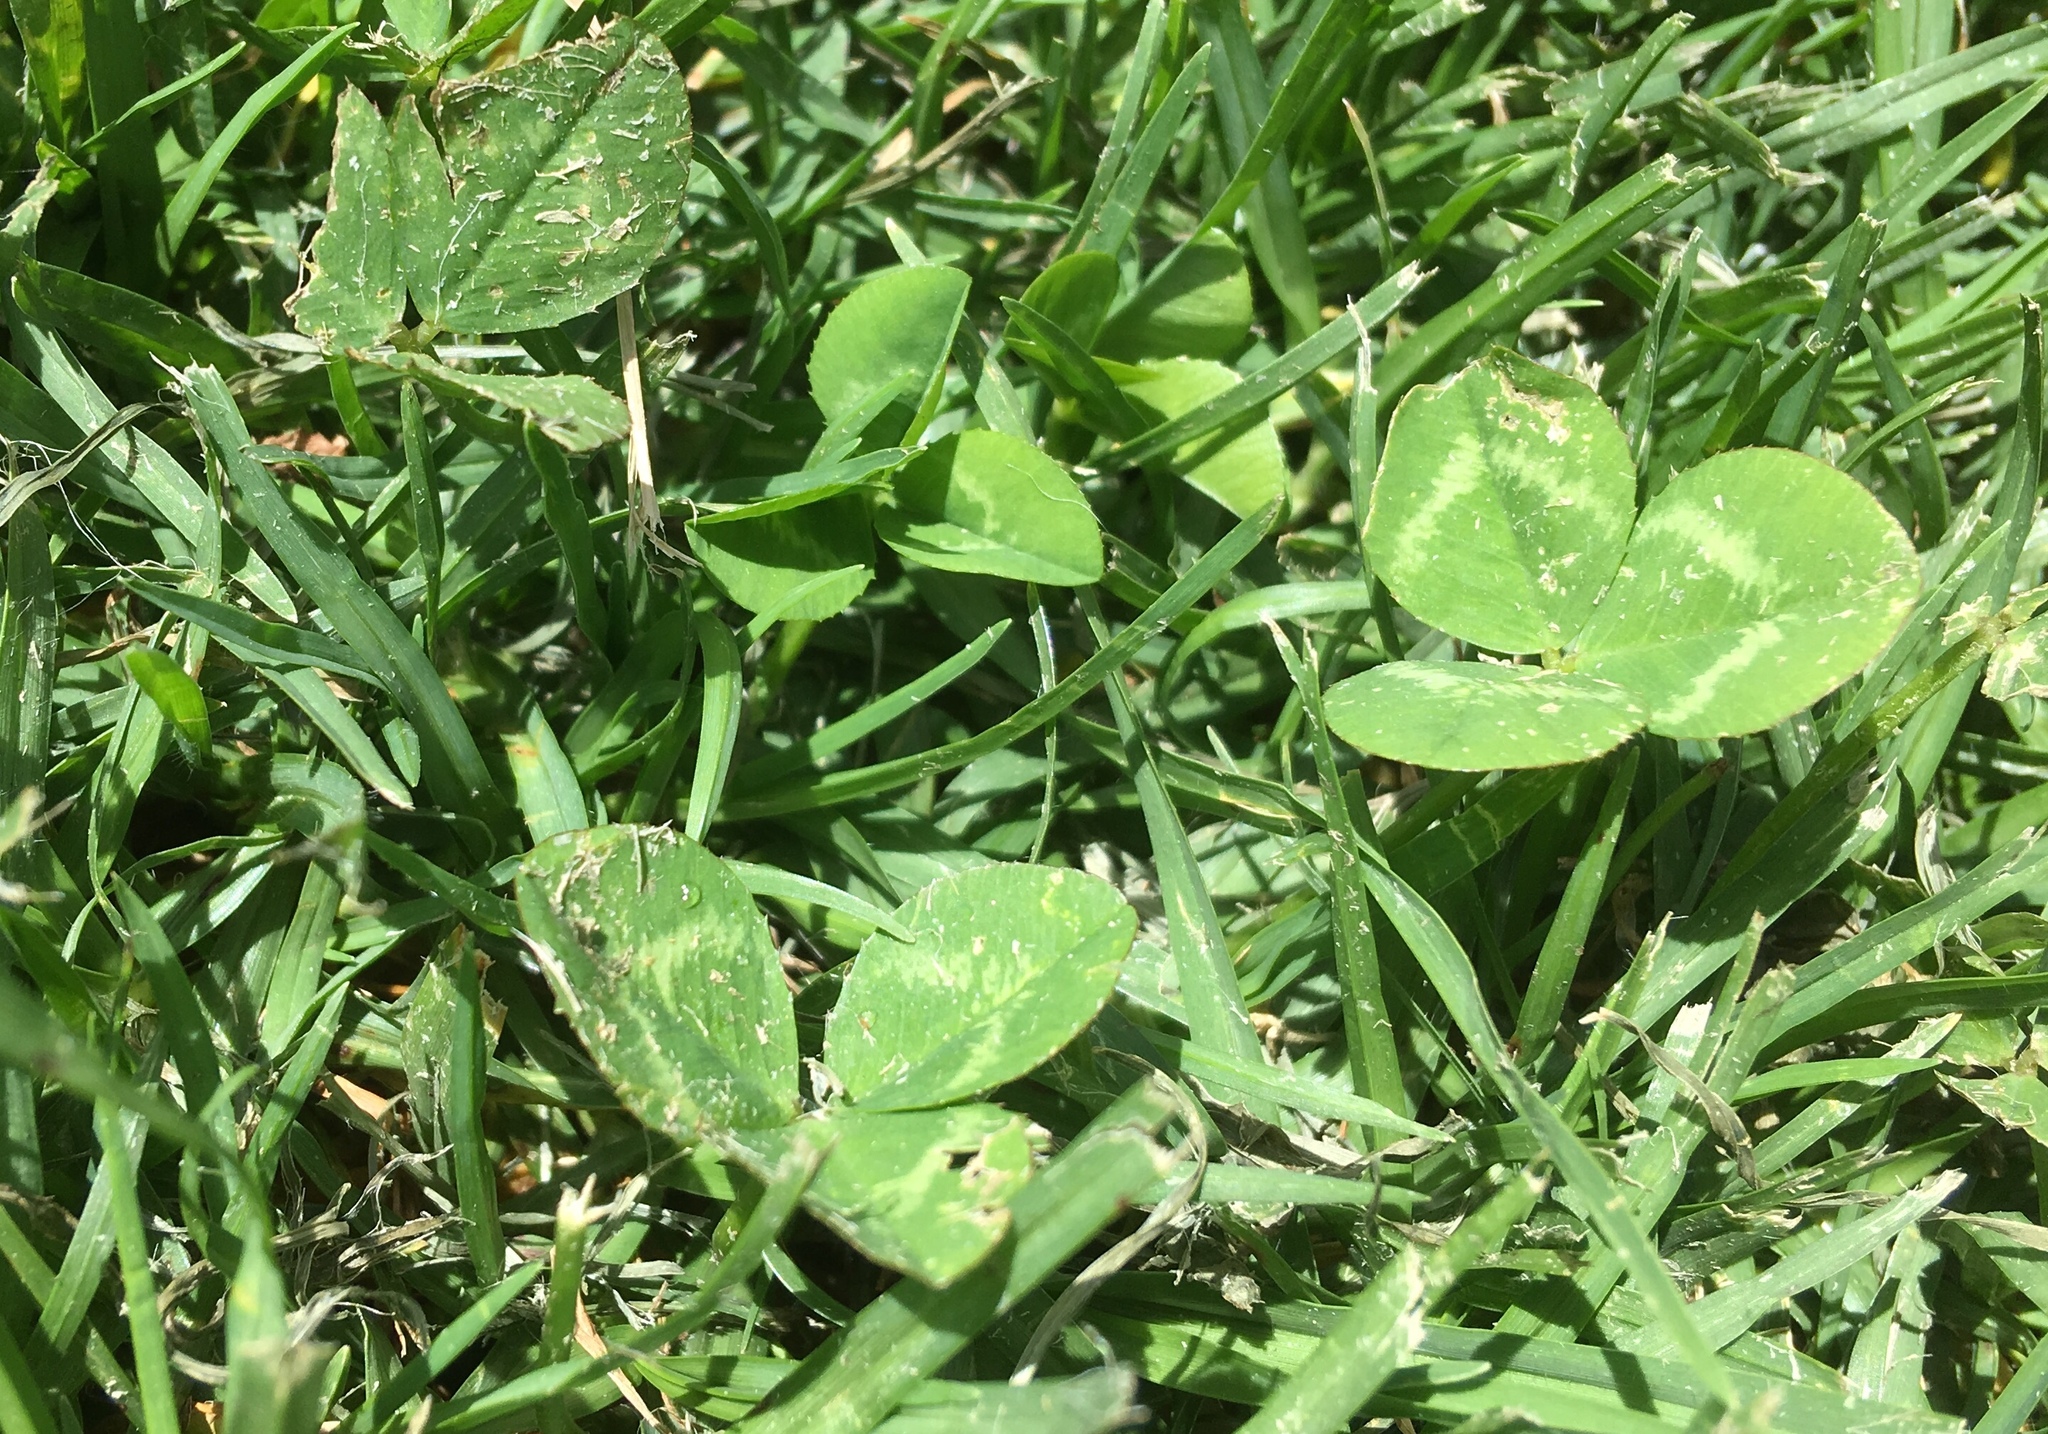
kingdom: Plantae
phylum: Tracheophyta
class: Magnoliopsida
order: Fabales
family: Fabaceae
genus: Trifolium
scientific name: Trifolium repens
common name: White clover
